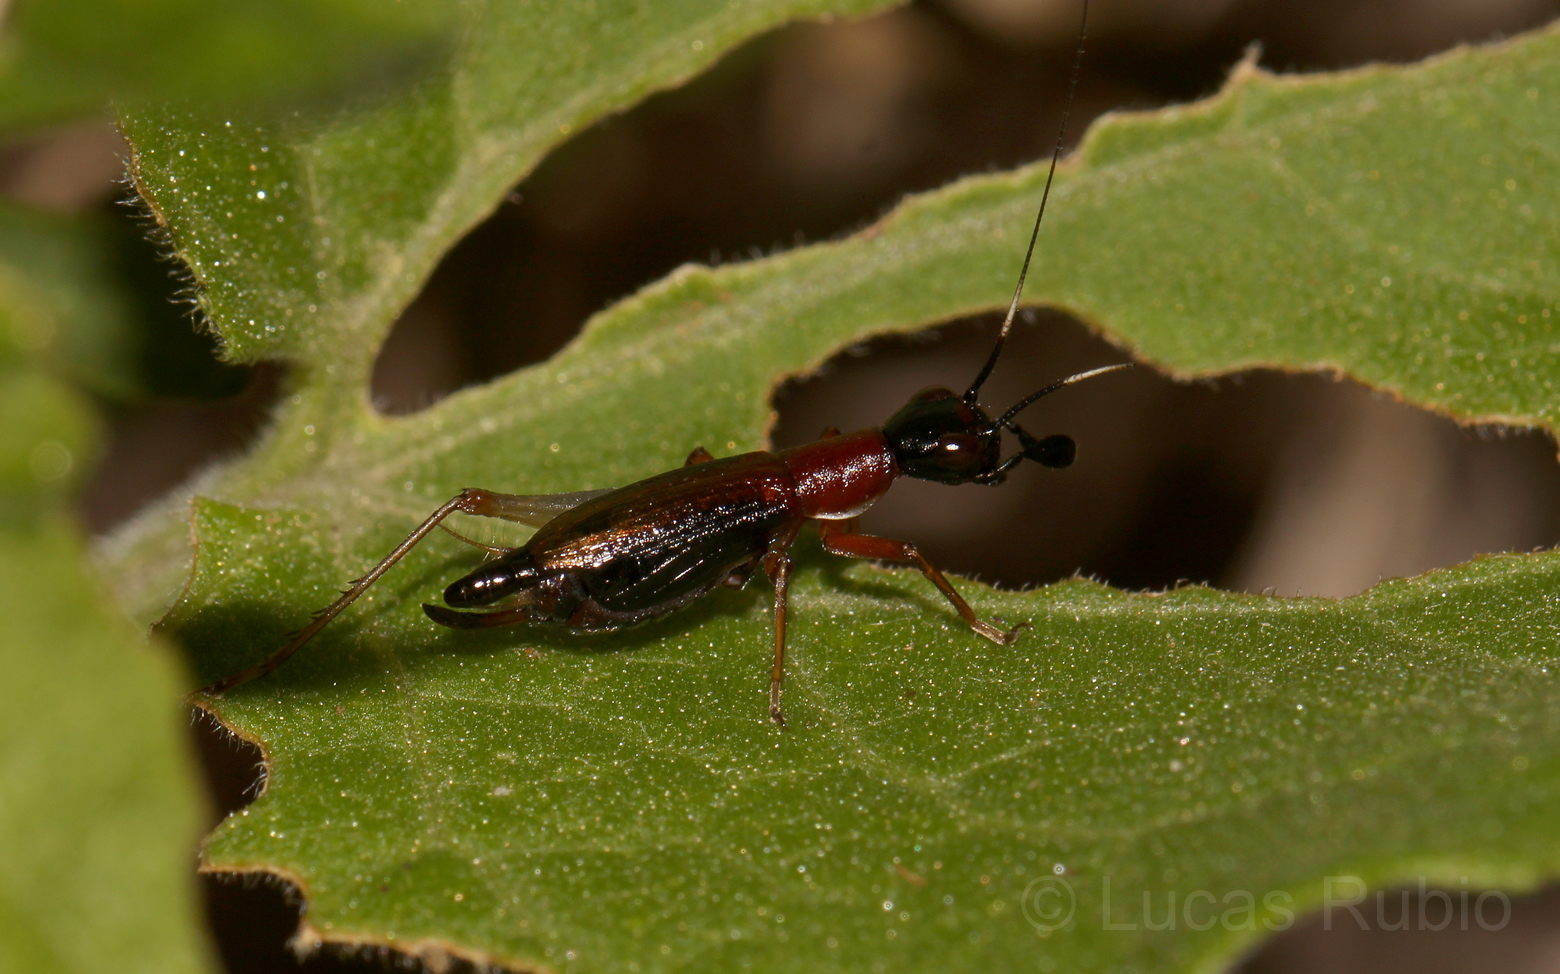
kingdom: Animalia
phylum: Arthropoda
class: Insecta
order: Orthoptera
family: Trigonidiidae
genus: Cranistus
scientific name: Cranistus colliurides
